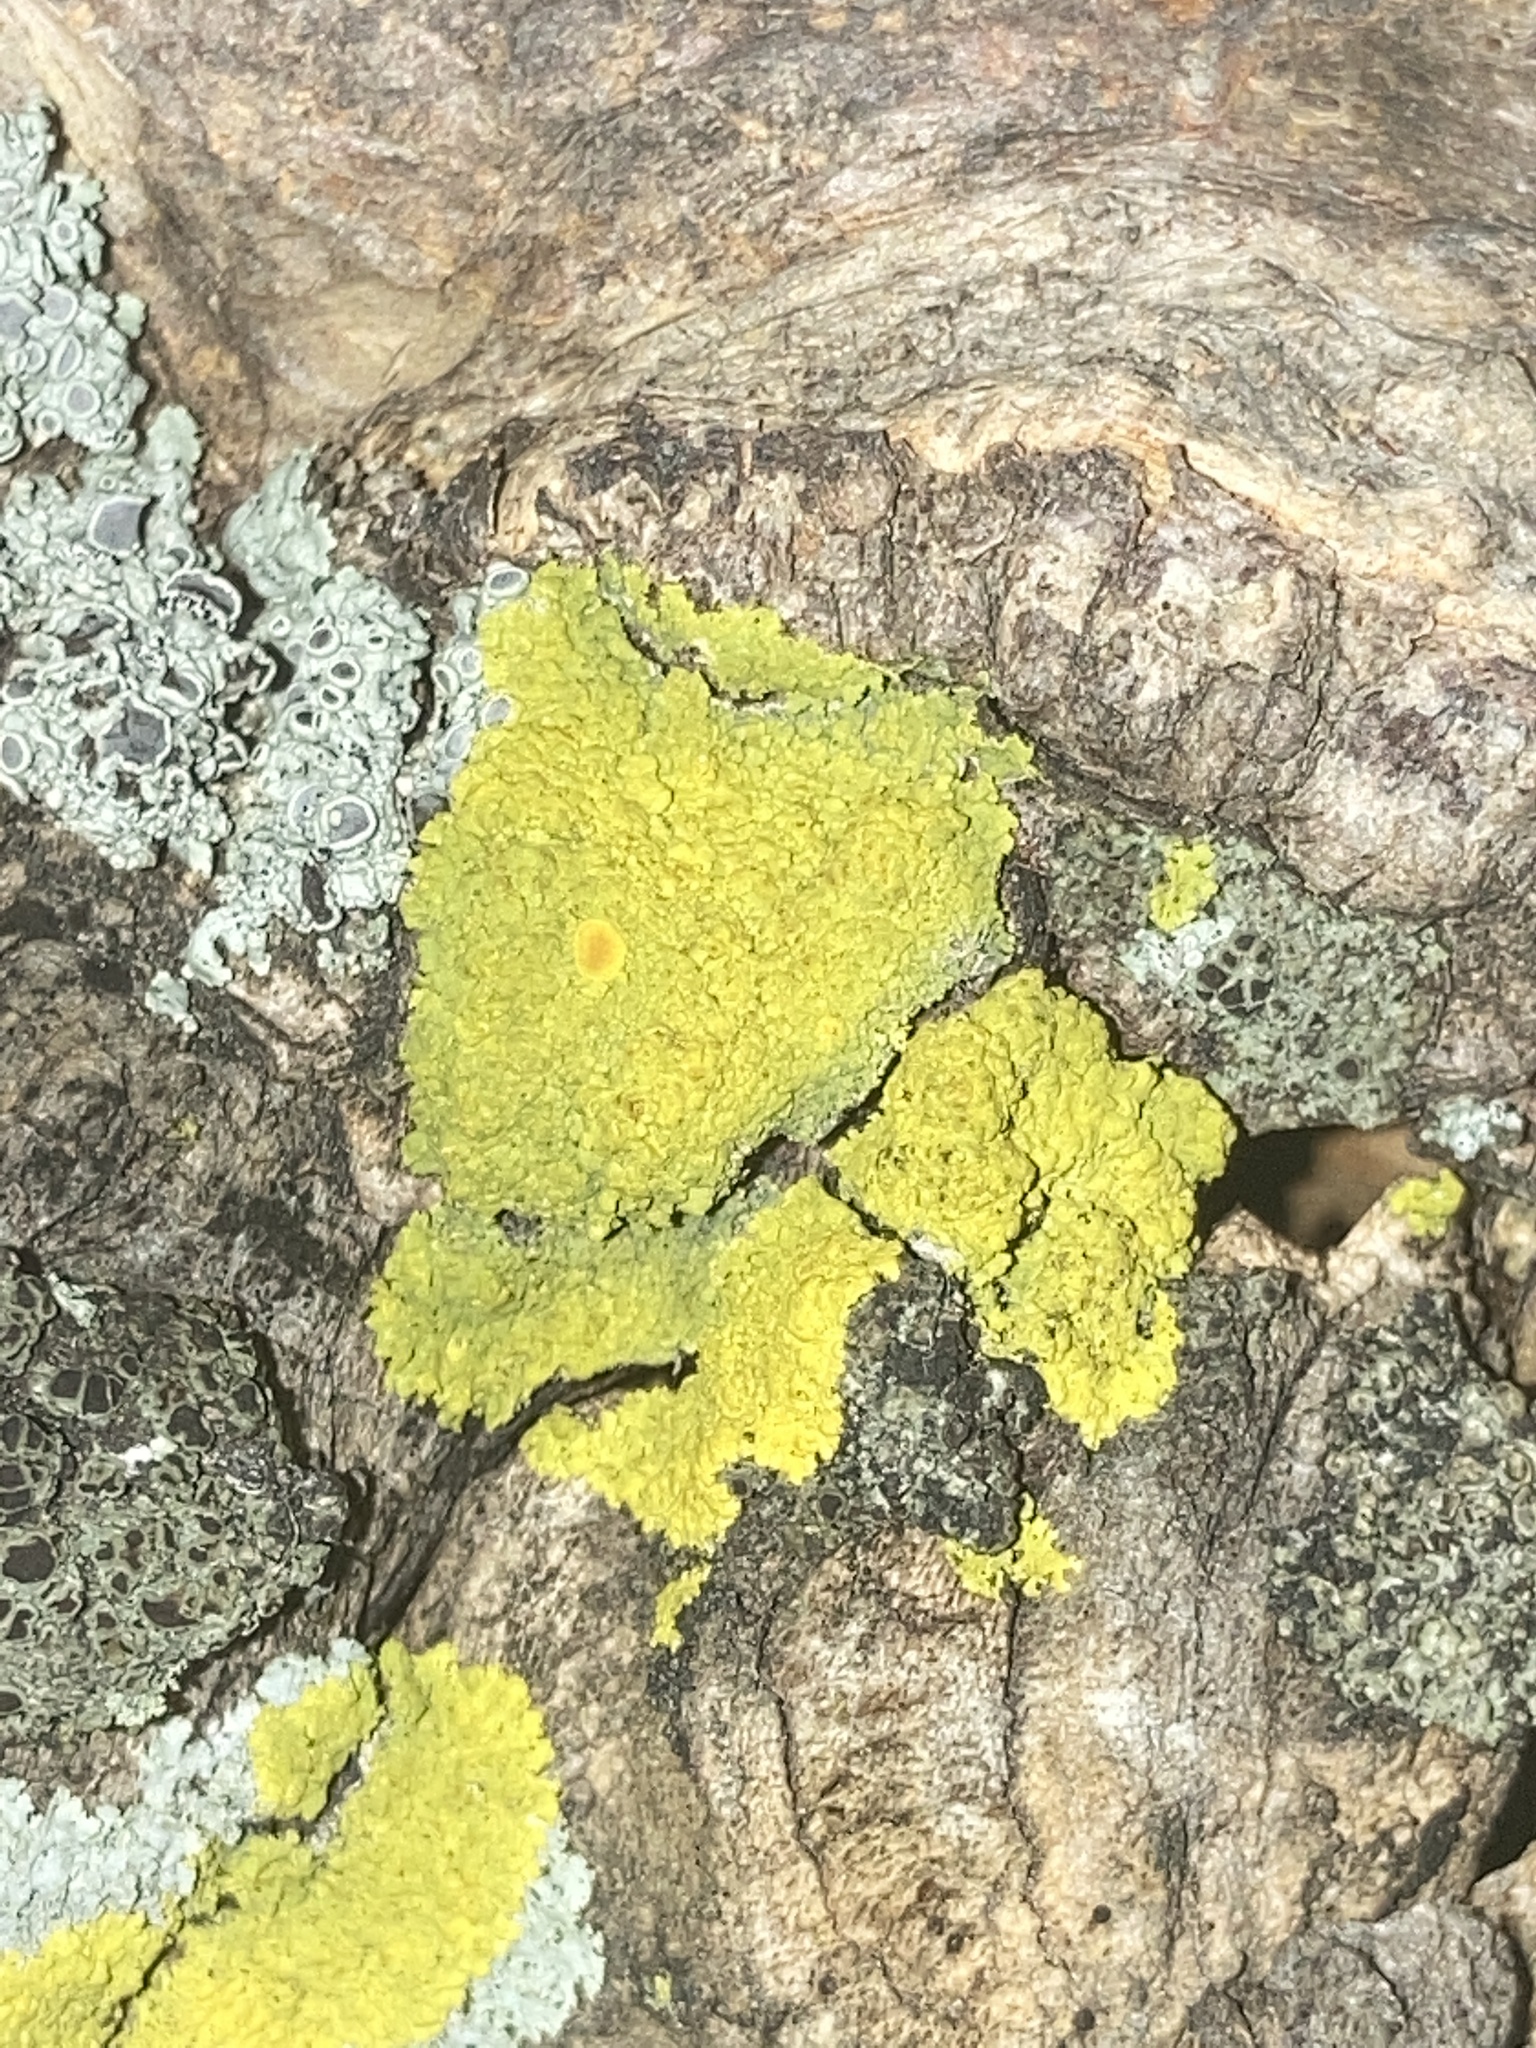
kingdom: Fungi
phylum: Ascomycota
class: Candelariomycetes
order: Candelariales
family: Candelariaceae
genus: Candelaria
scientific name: Candelaria fibrosa
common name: Fringed candleflame lichen
